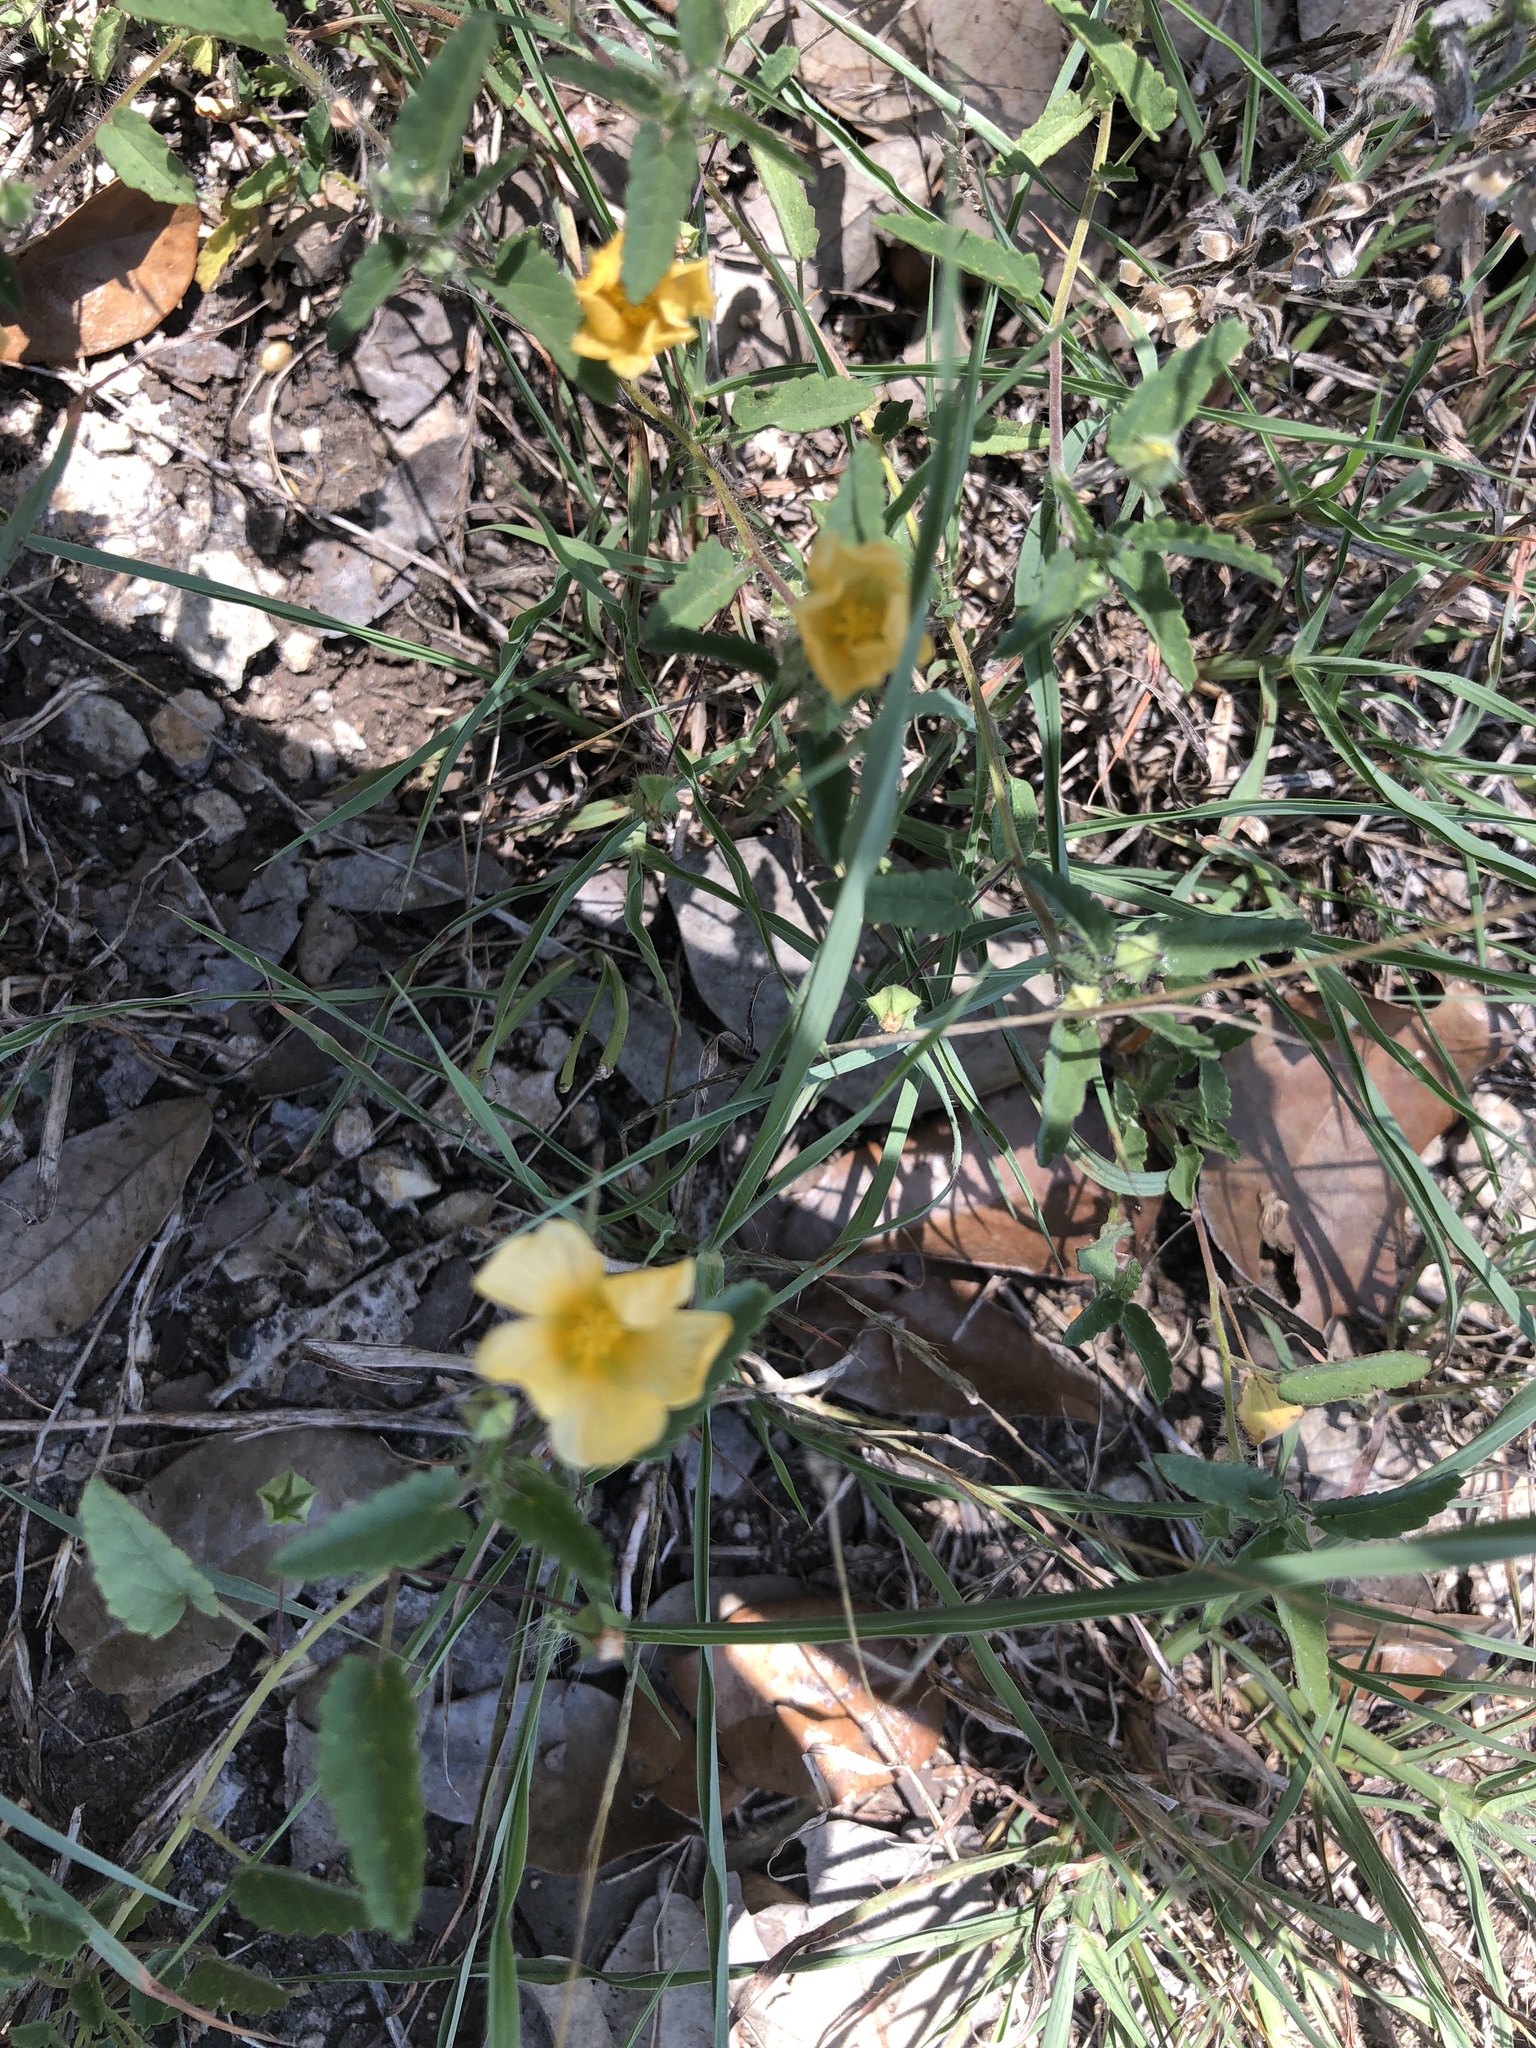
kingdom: Plantae
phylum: Tracheophyta
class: Magnoliopsida
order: Malvales
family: Malvaceae
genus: Sida
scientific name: Sida abutilifolia
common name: Spreading fanpetals
